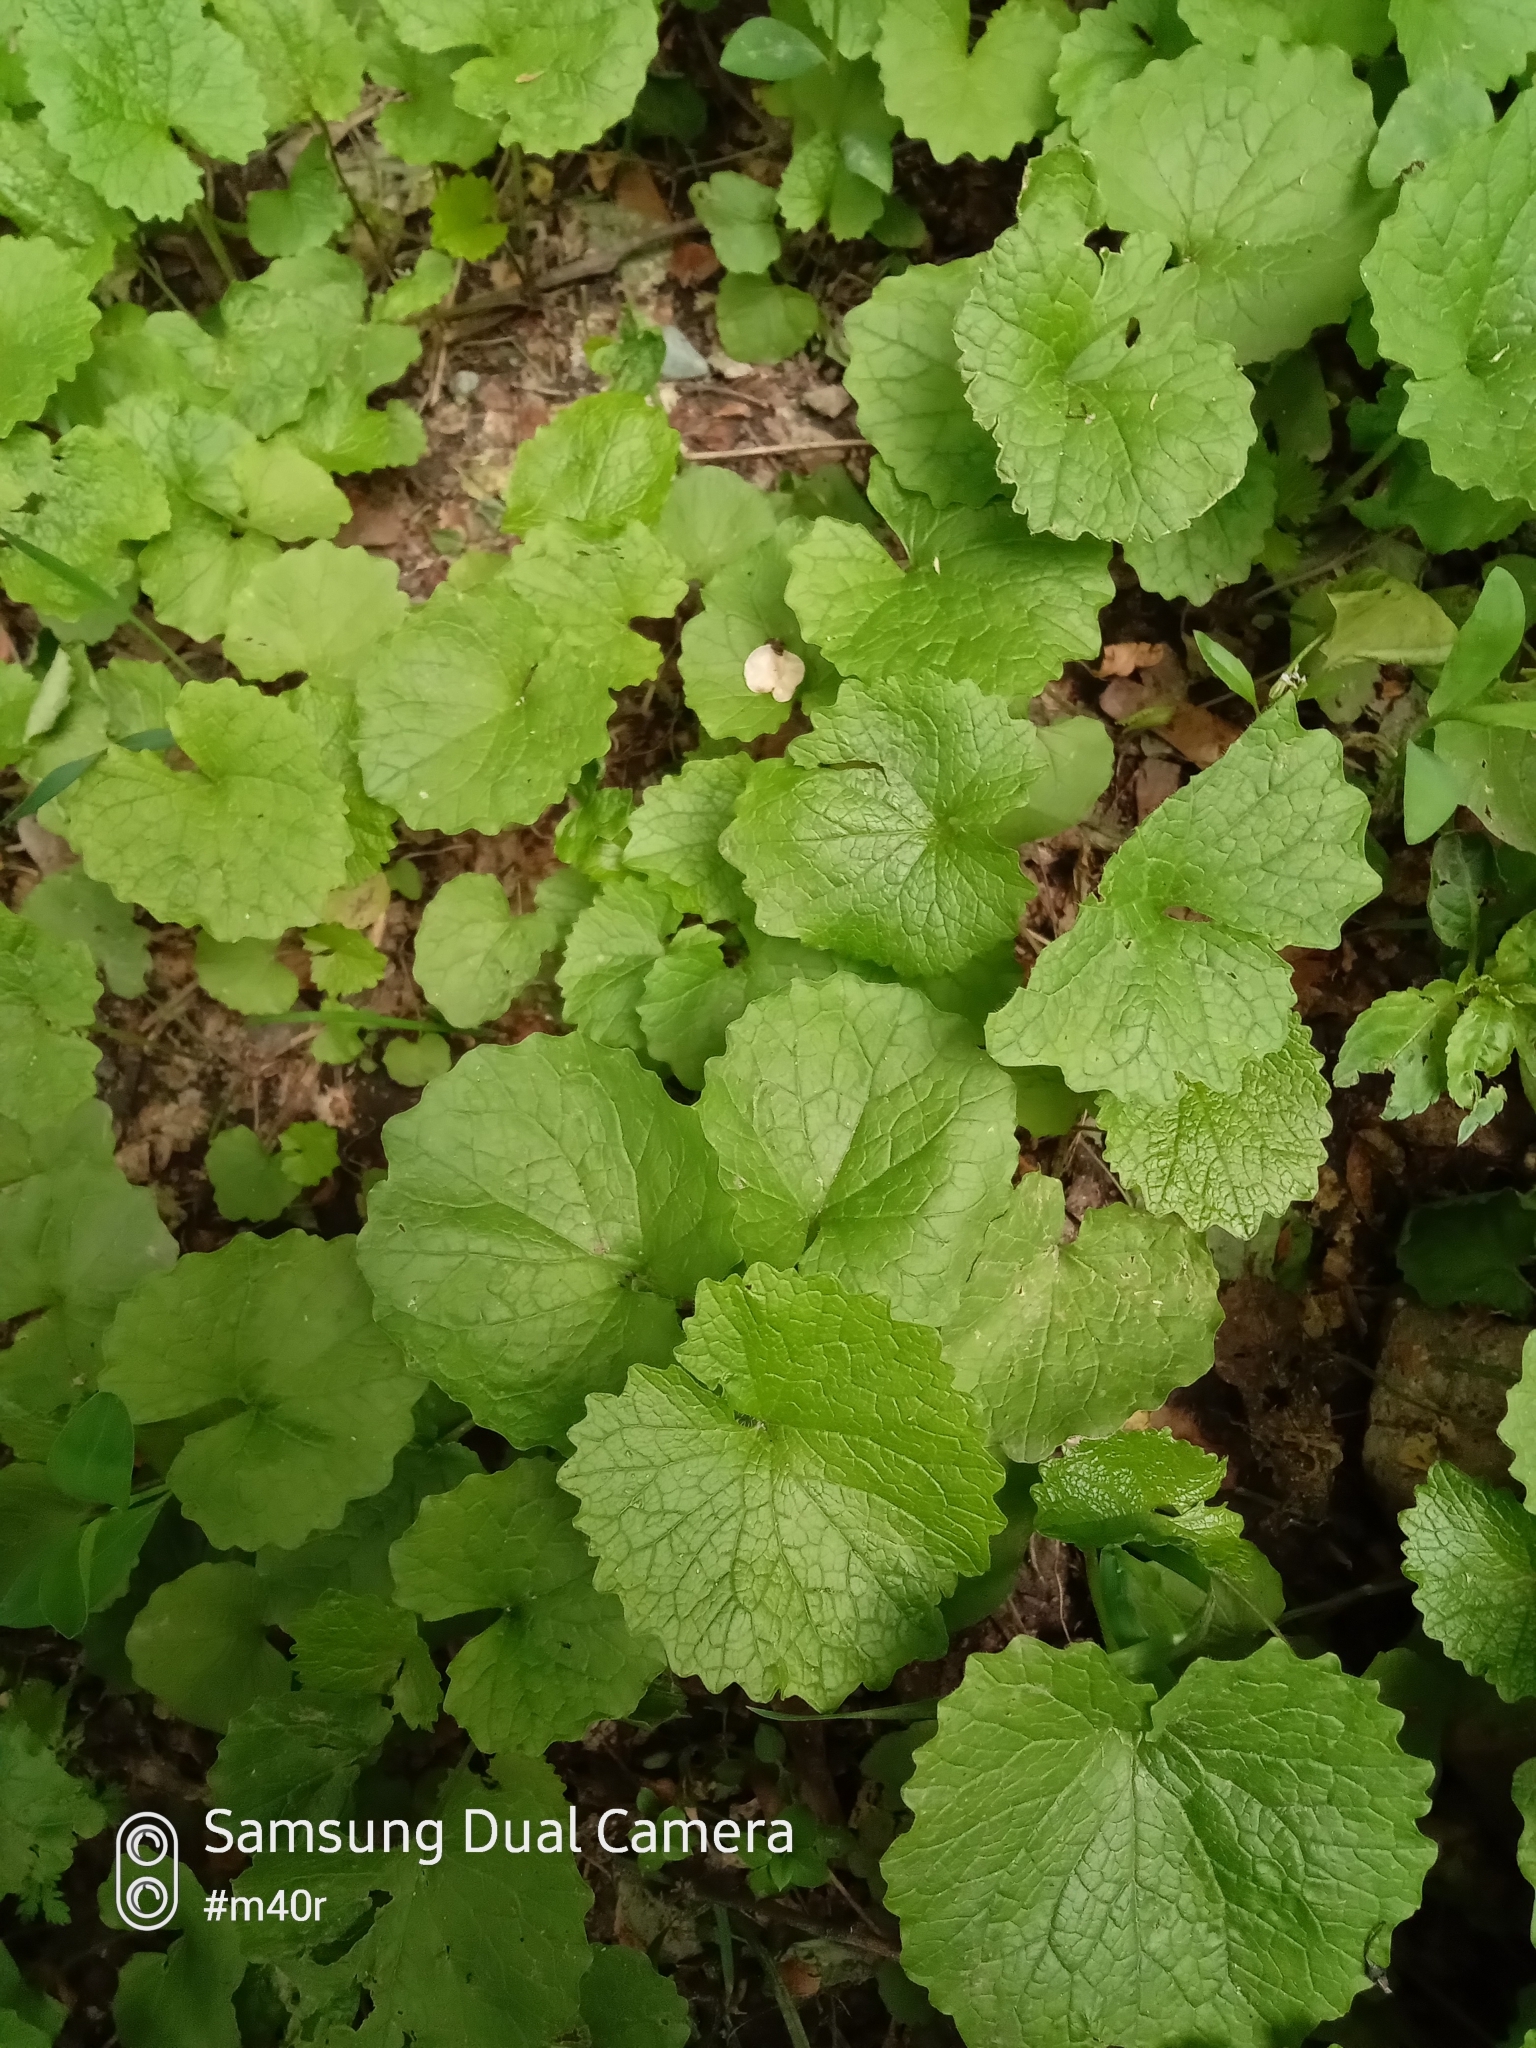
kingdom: Plantae
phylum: Tracheophyta
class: Magnoliopsida
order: Brassicales
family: Brassicaceae
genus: Alliaria
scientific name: Alliaria petiolata
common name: Garlic mustard
